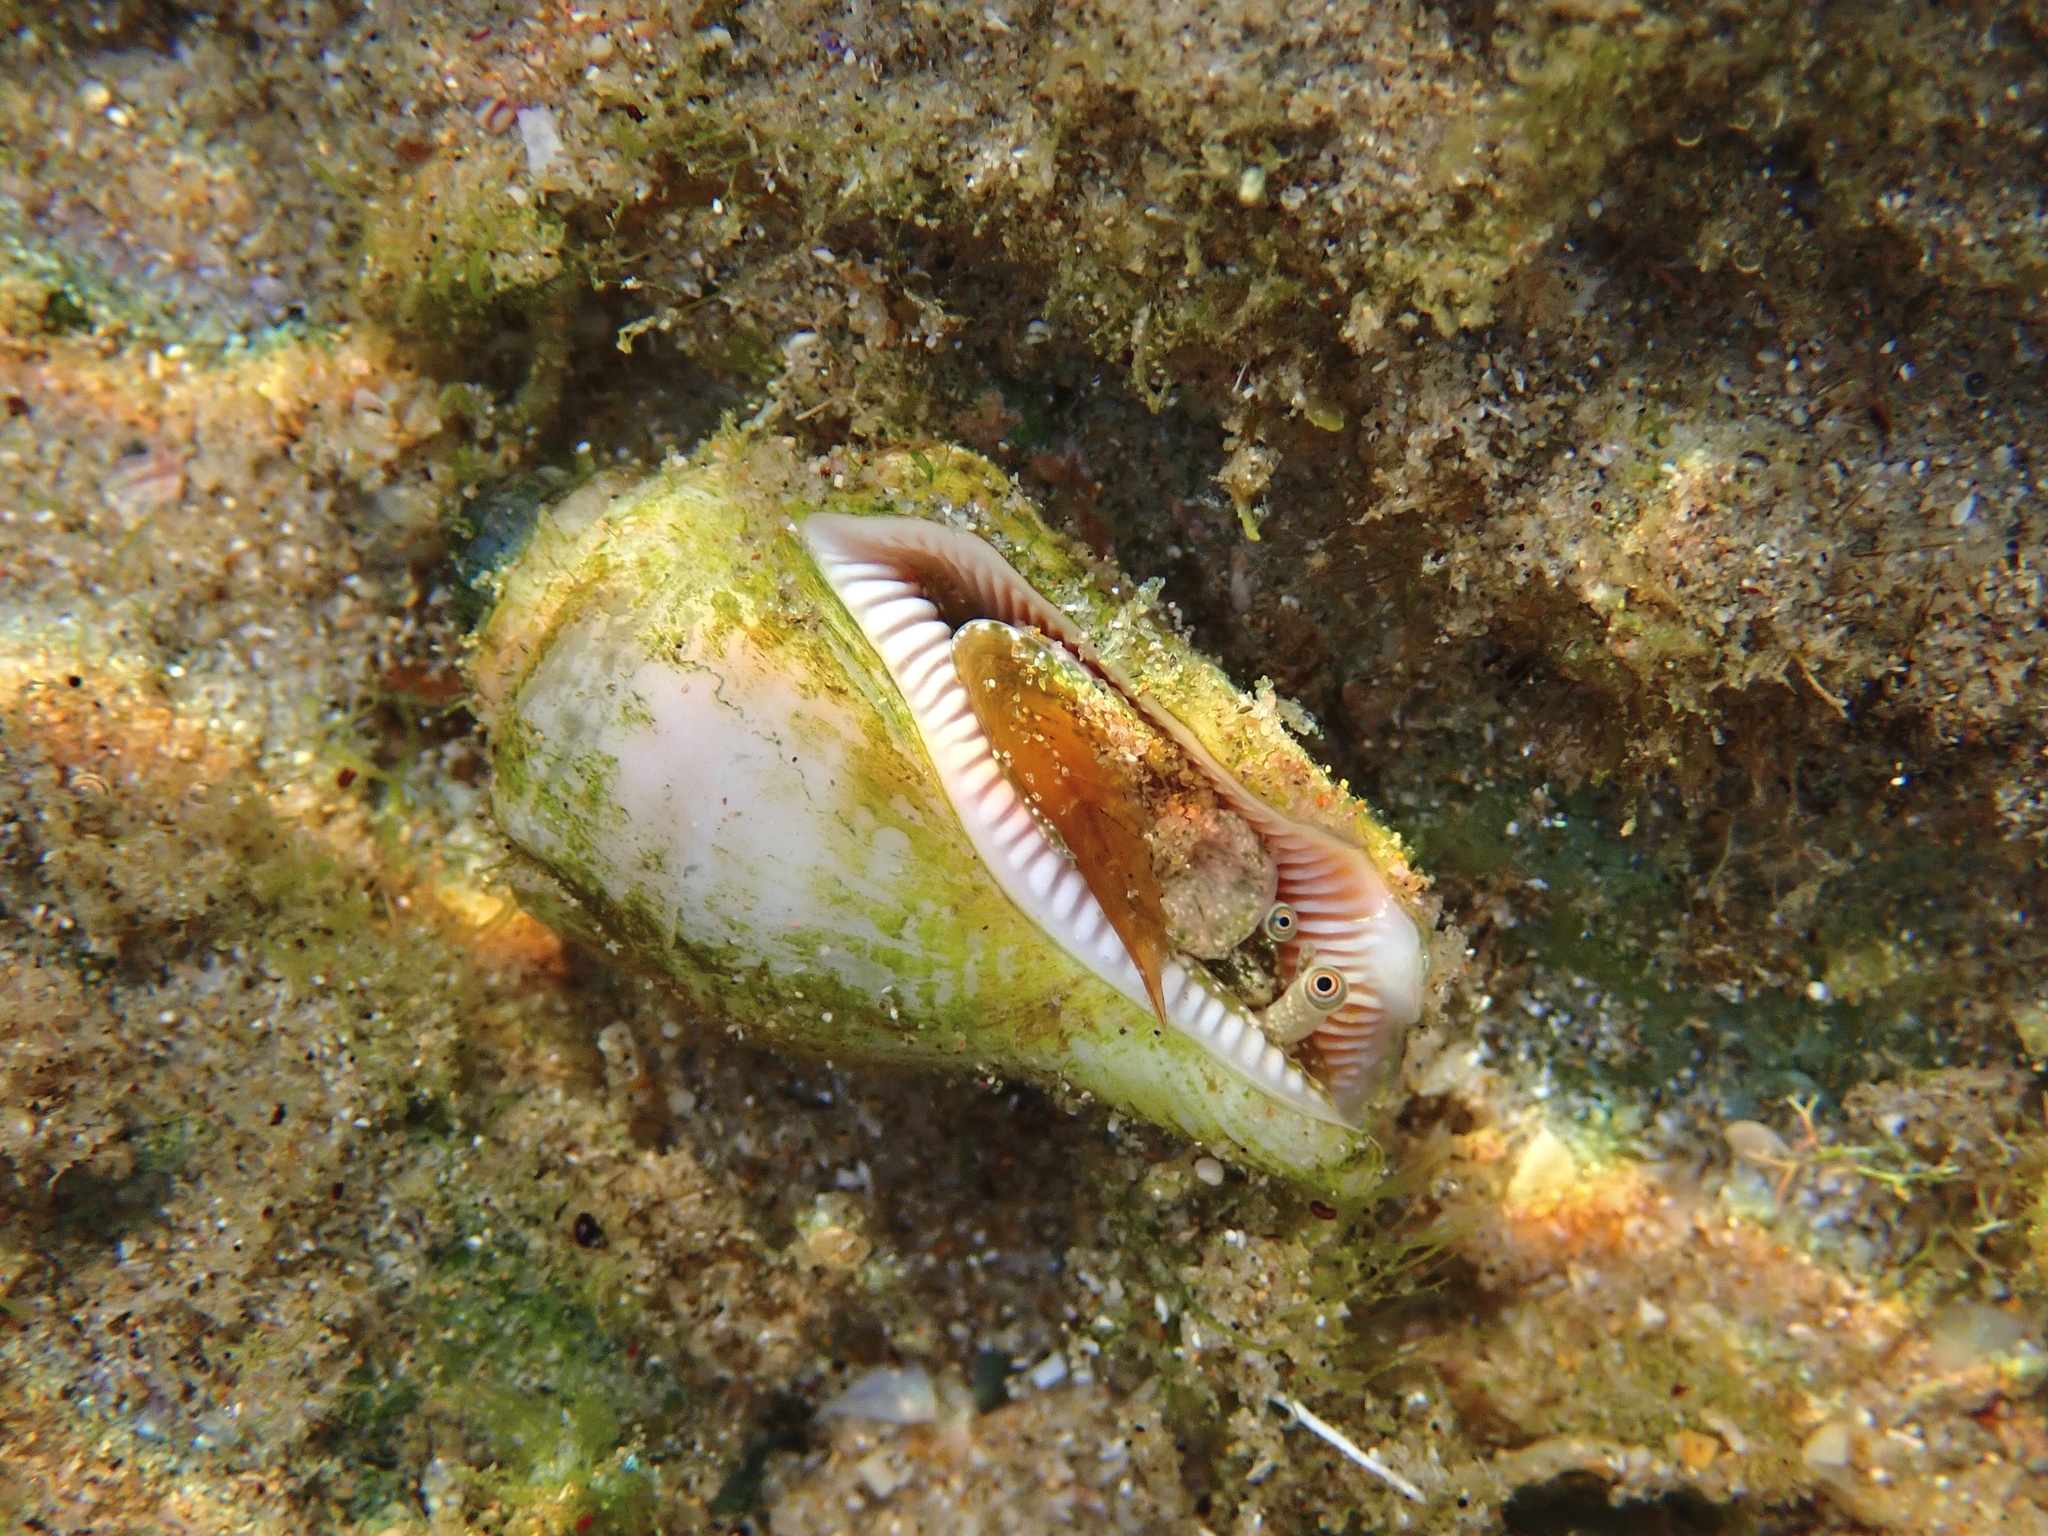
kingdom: Animalia
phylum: Mollusca
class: Gastropoda
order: Littorinimorpha
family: Strombidae
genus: Canarium
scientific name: Canarium mutabile
